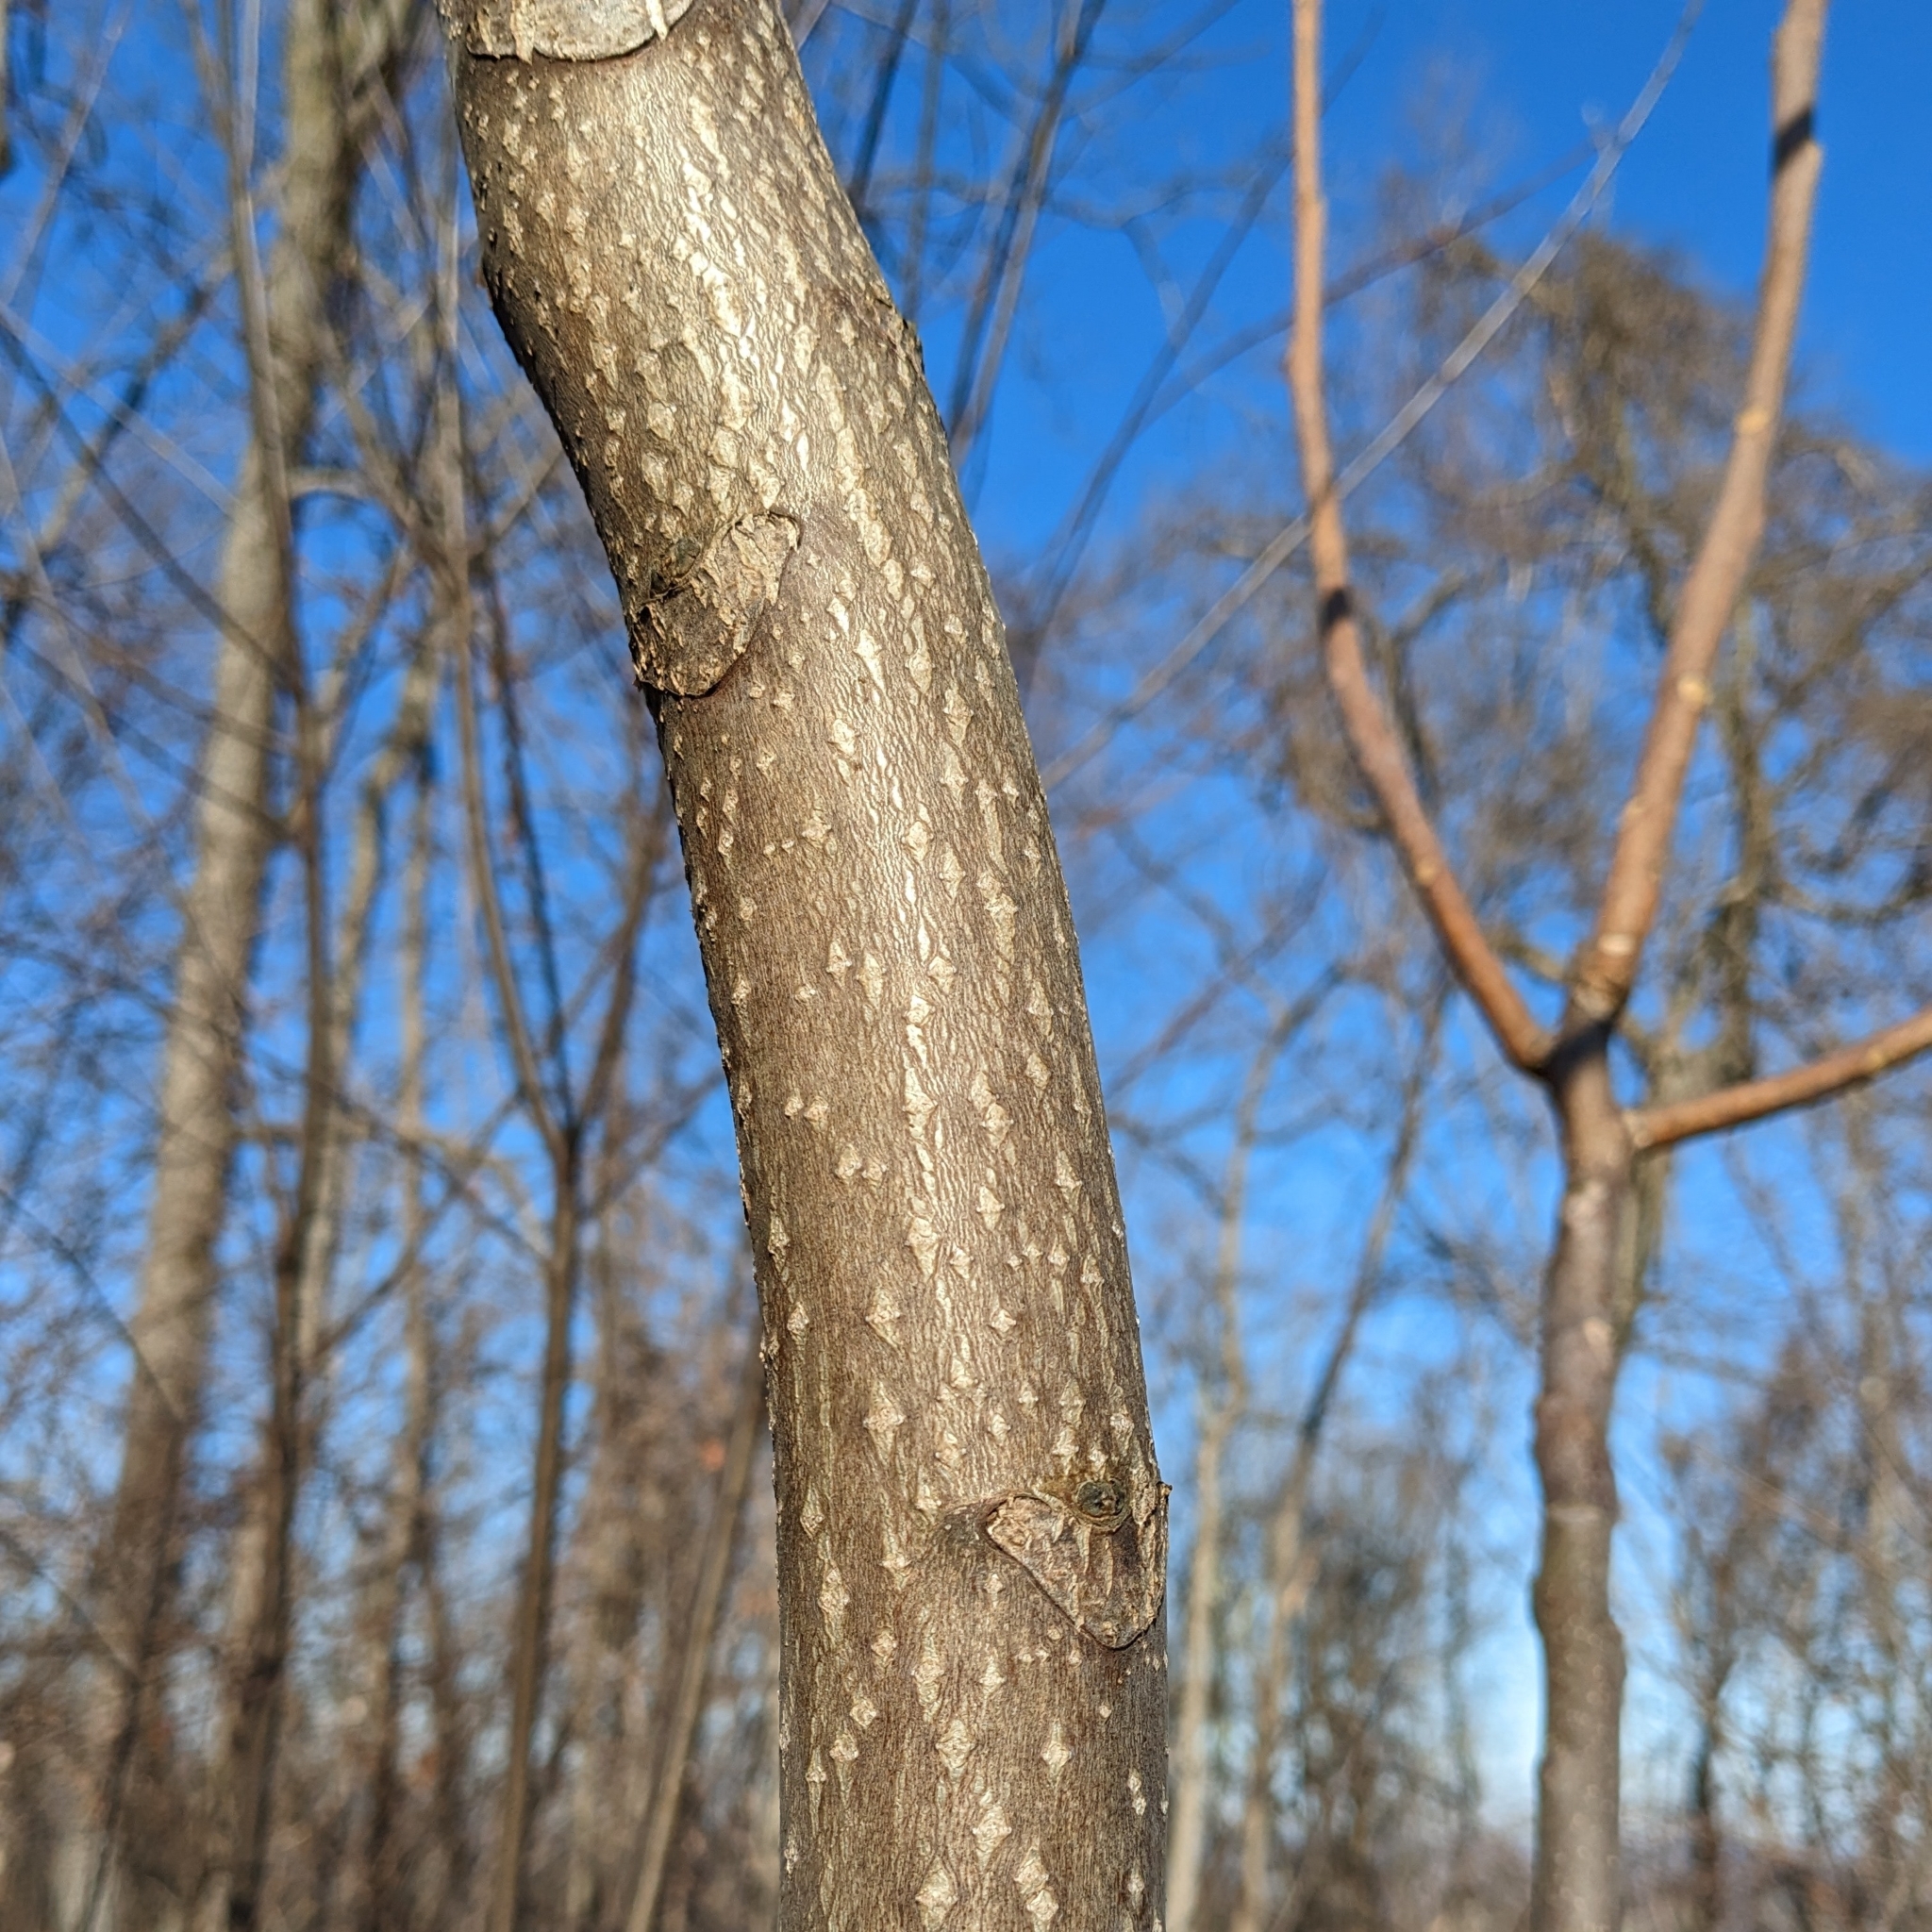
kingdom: Plantae
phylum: Tracheophyta
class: Magnoliopsida
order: Sapindales
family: Simaroubaceae
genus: Ailanthus
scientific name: Ailanthus altissima
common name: Tree-of-heaven
